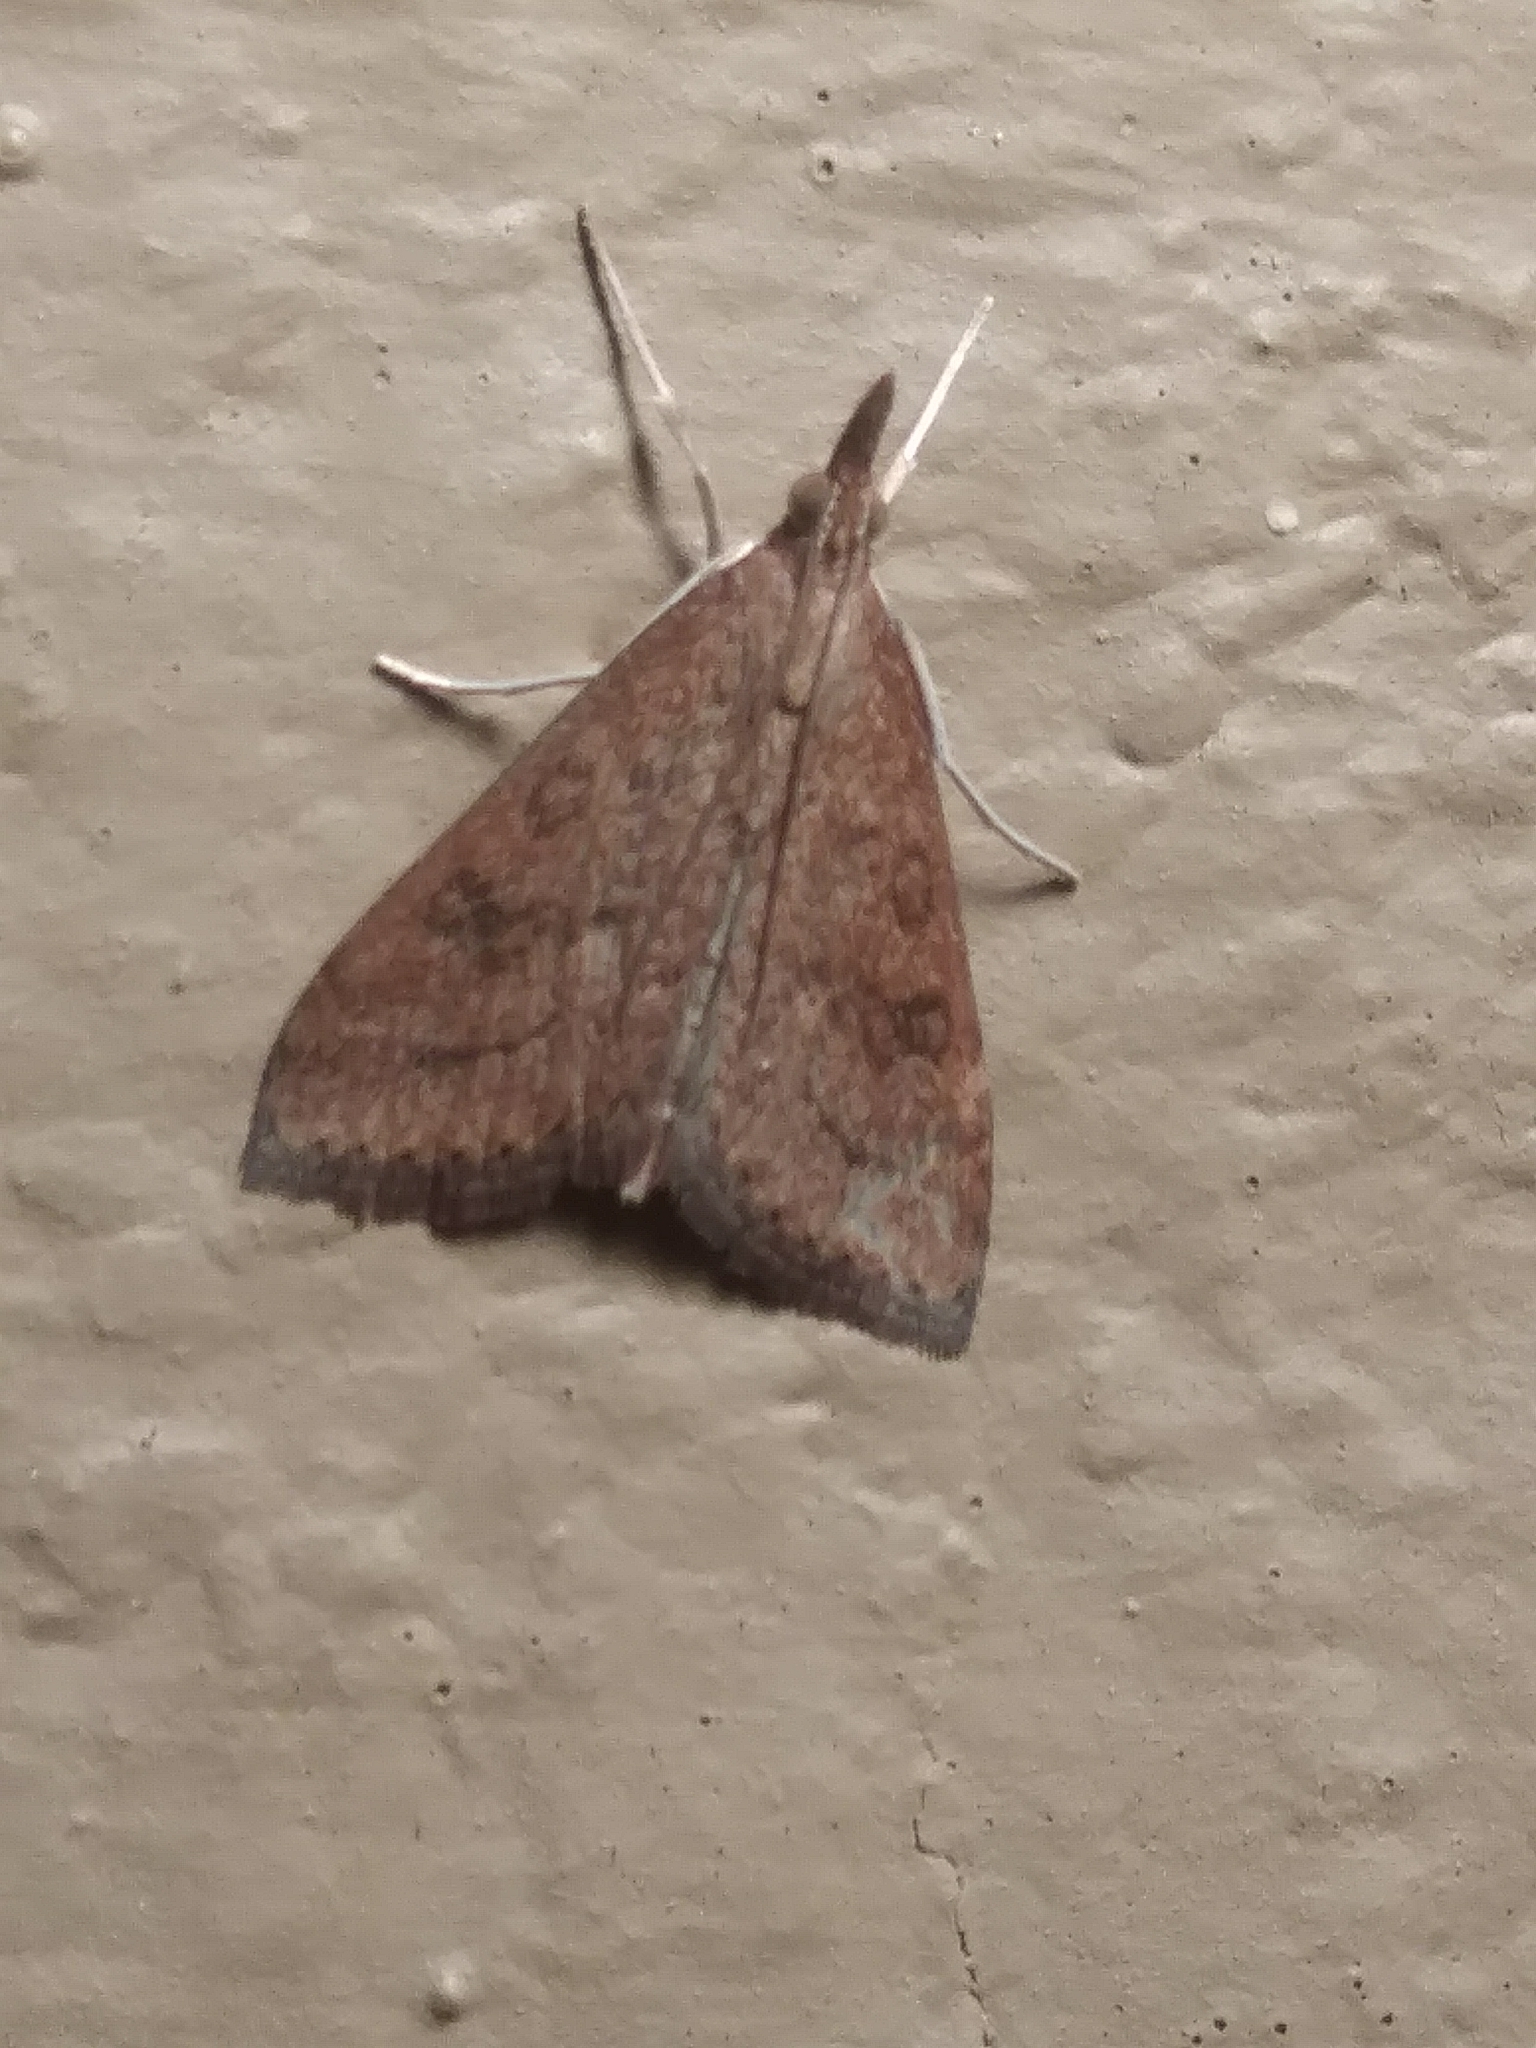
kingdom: Animalia
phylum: Arthropoda
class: Insecta
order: Lepidoptera
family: Crambidae
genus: Udea
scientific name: Udea rubigalis
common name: Celery leaftier moth
